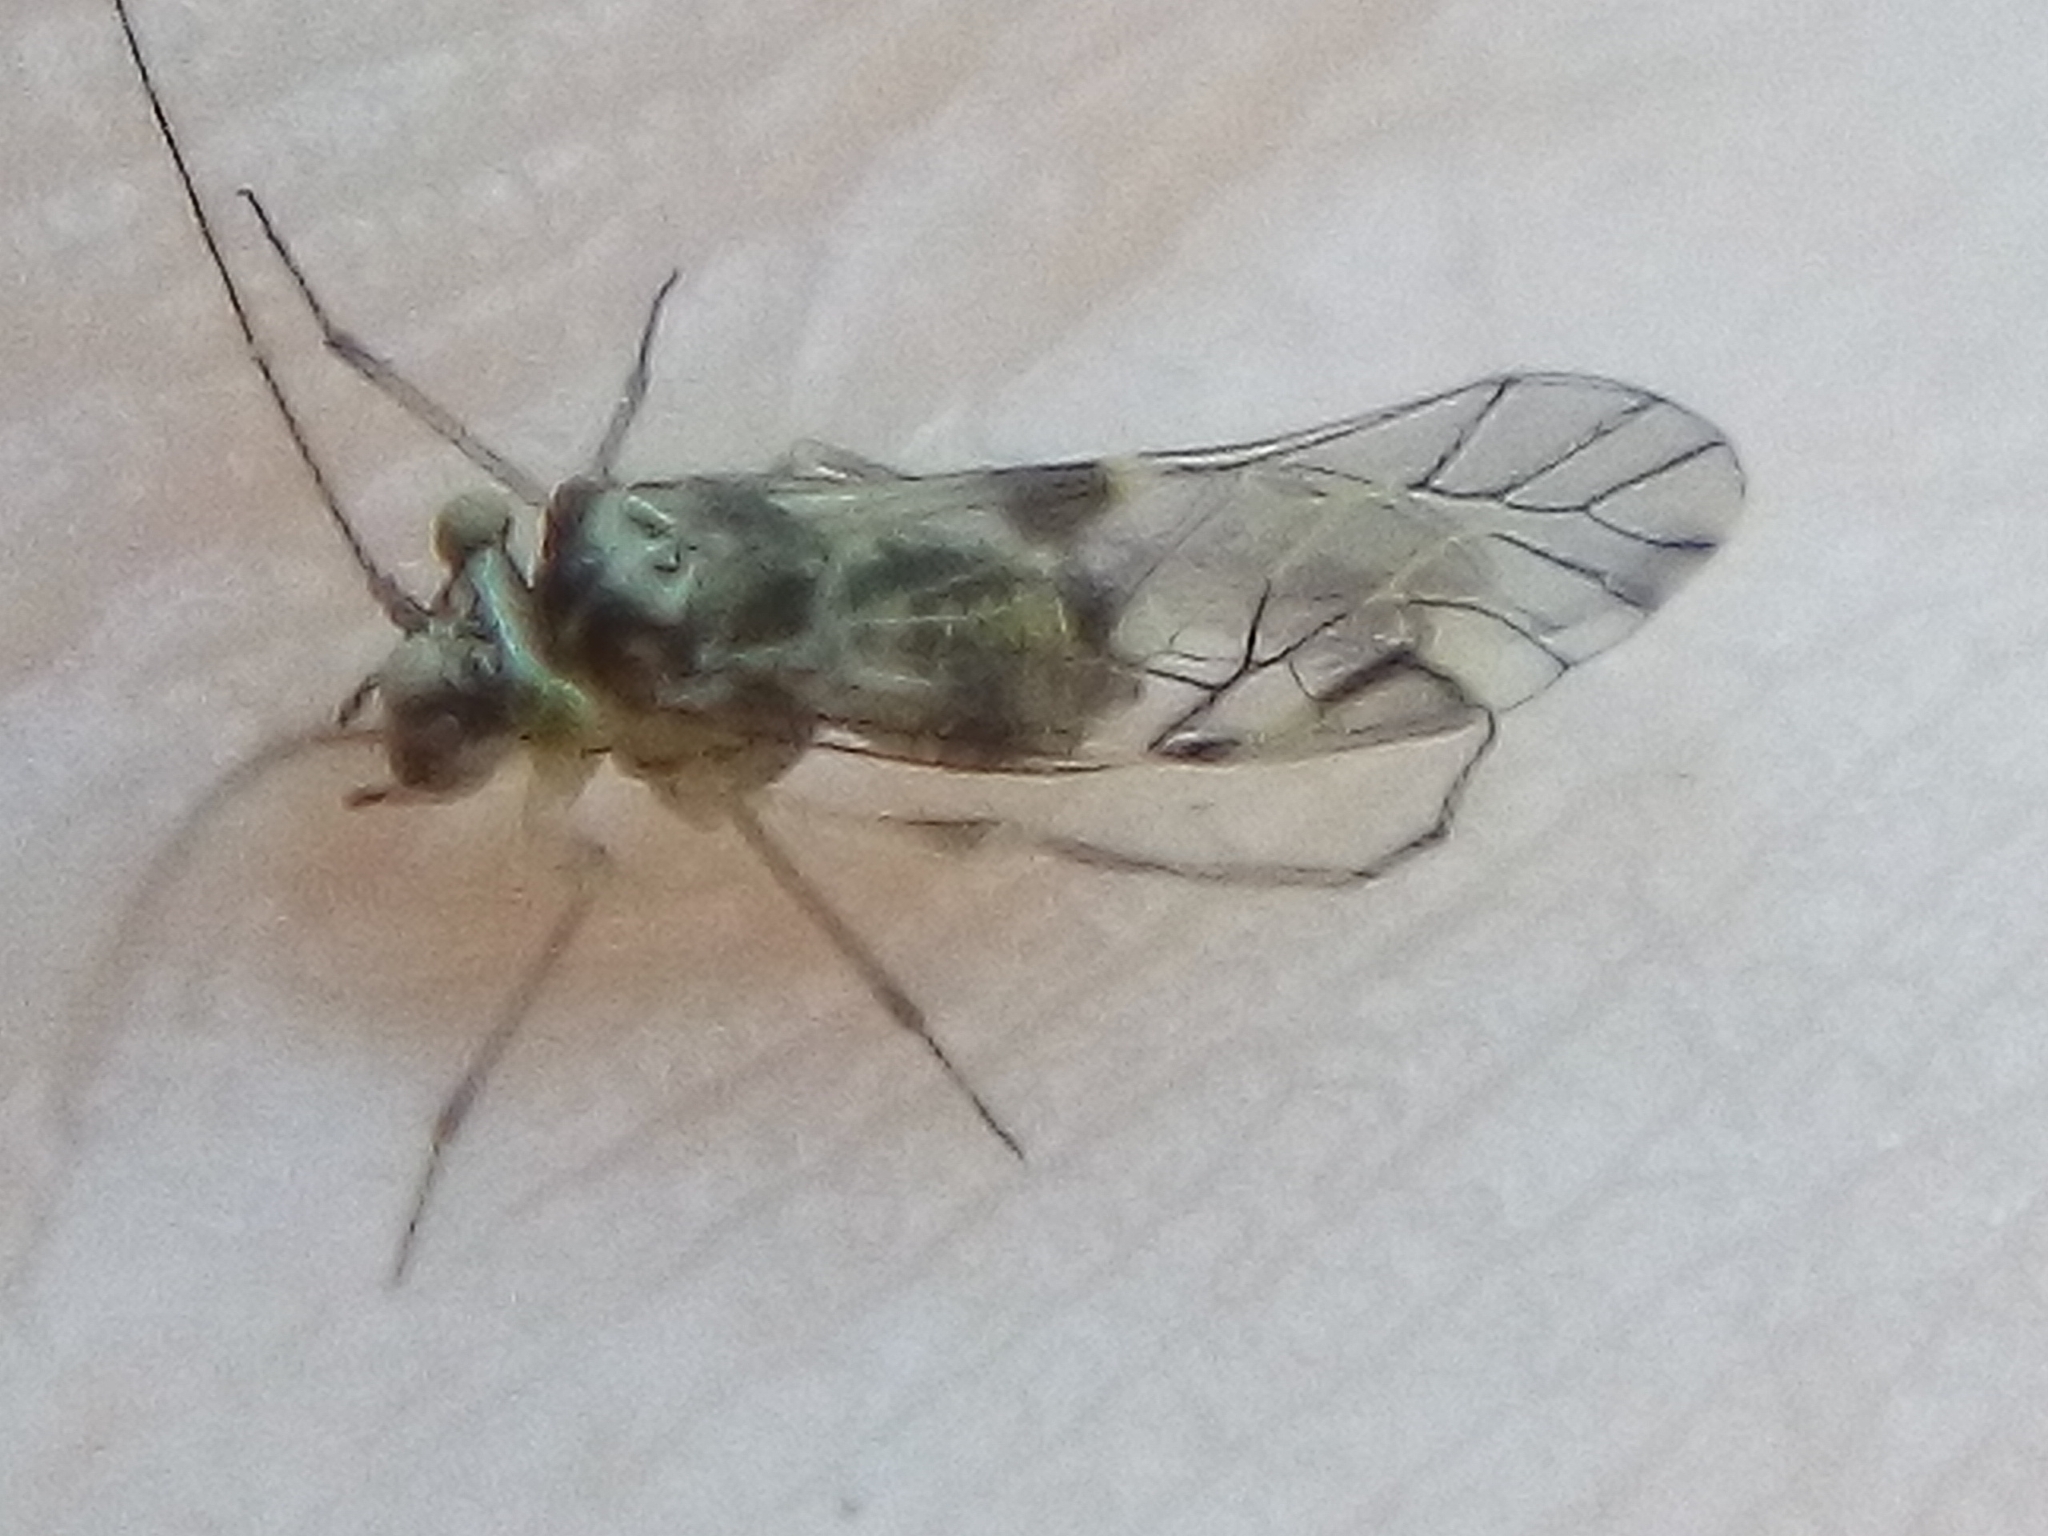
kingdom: Animalia
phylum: Arthropoda
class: Insecta
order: Psocodea
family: Psocidae
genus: Blaste
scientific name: Blaste tillyardi
